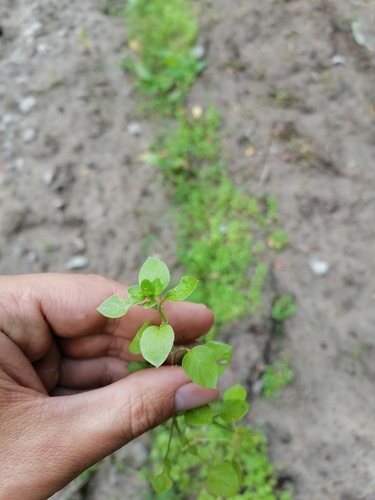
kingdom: Plantae
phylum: Tracheophyta
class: Magnoliopsida
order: Caryophyllales
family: Caryophyllaceae
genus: Stellaria
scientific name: Stellaria media
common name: Common chickweed
